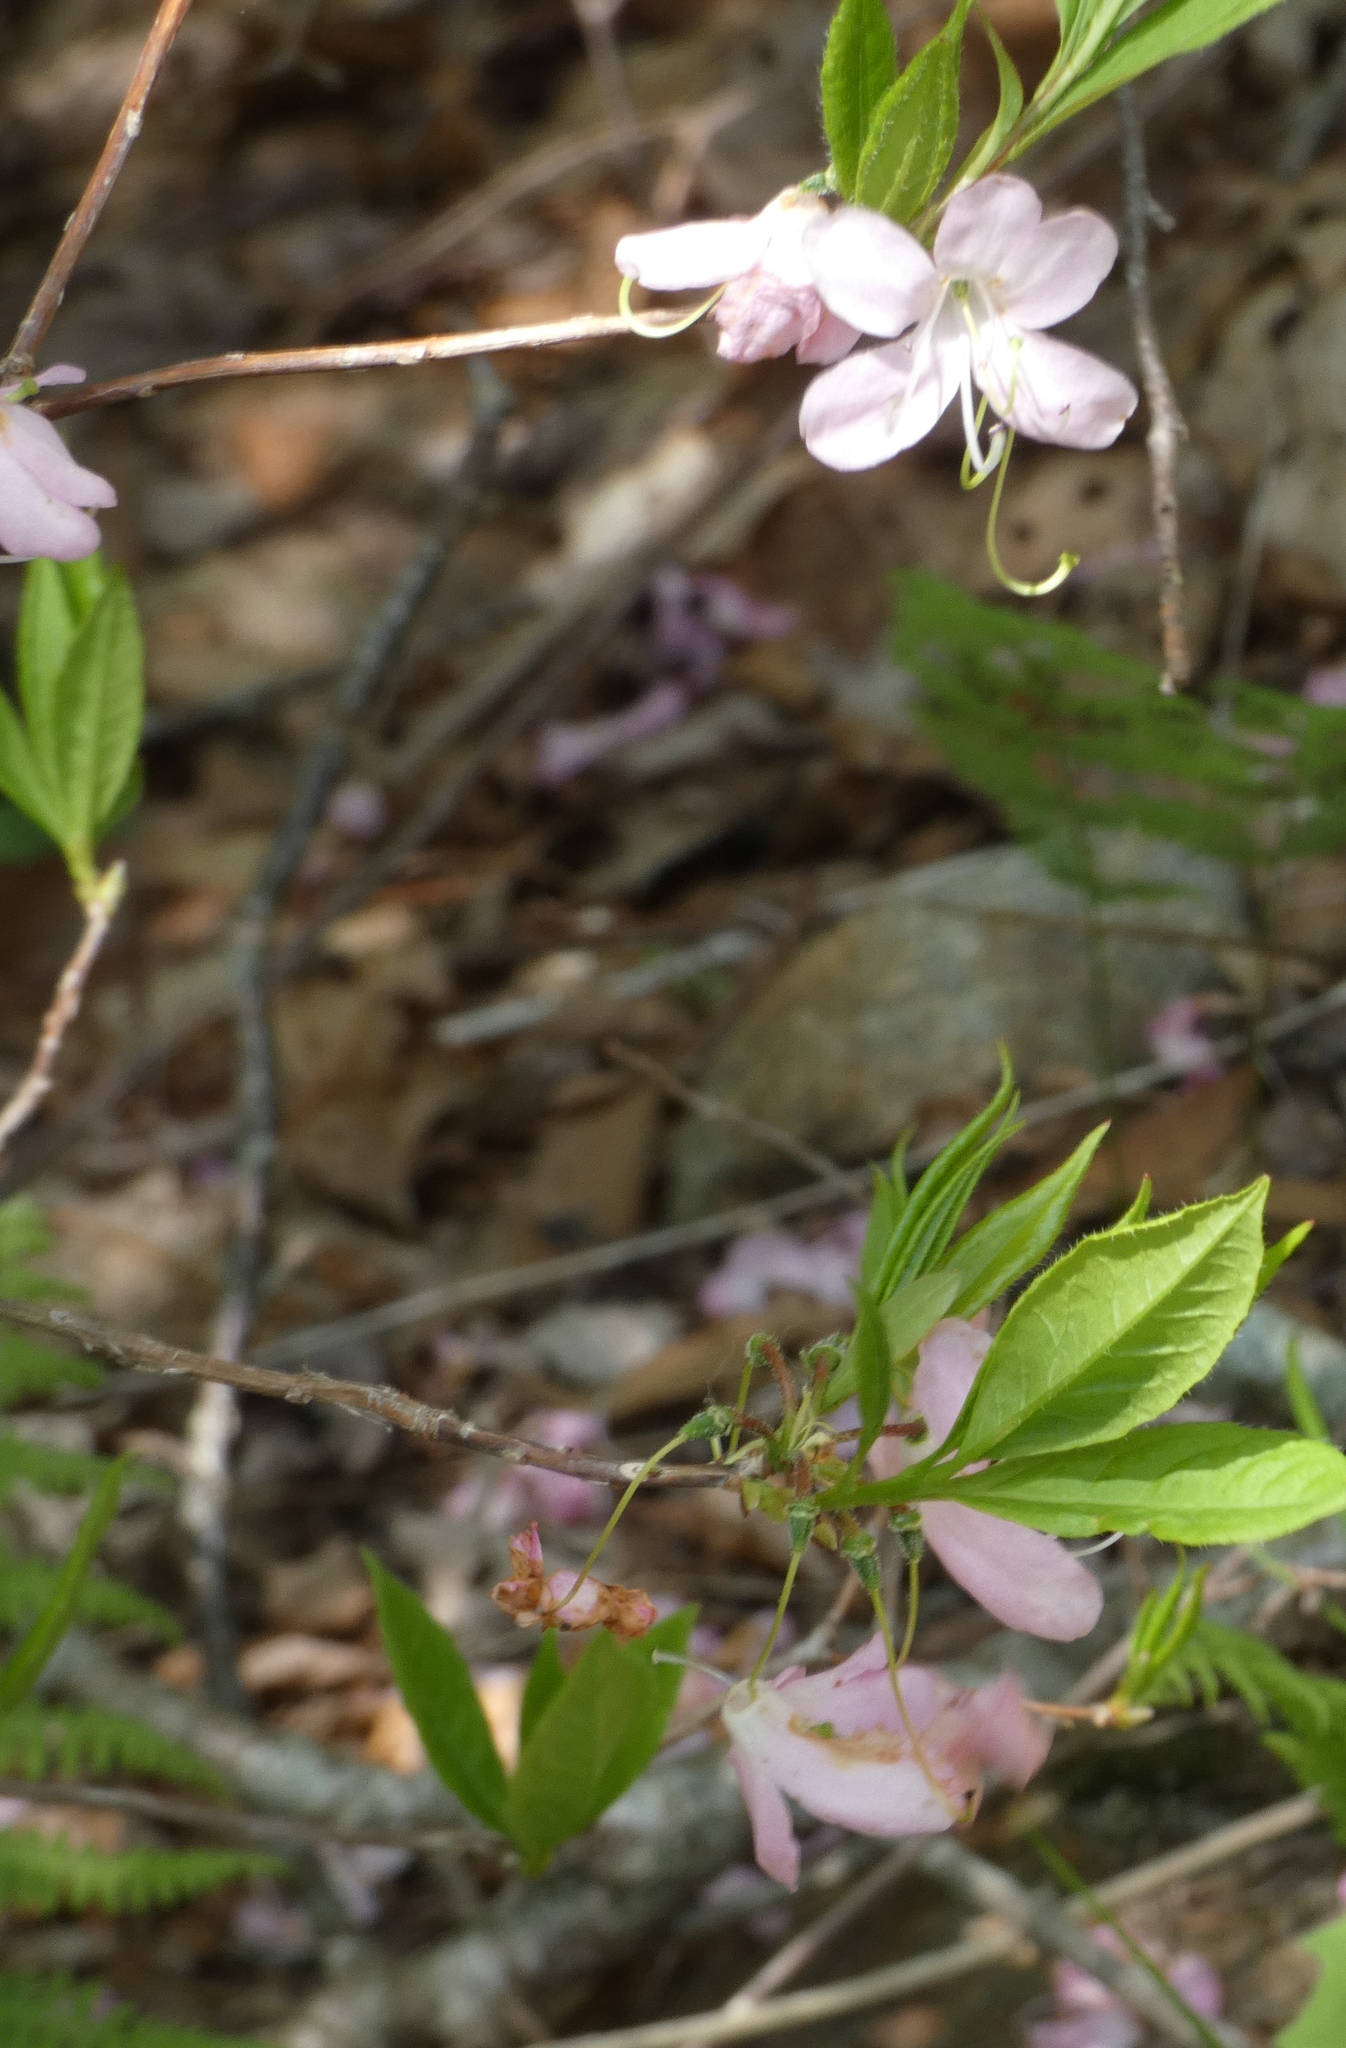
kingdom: Plantae
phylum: Tracheophyta
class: Magnoliopsida
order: Ericales
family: Ericaceae
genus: Rhododendron
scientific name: Rhododendron vaseyi
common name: Pink-shell azalea
